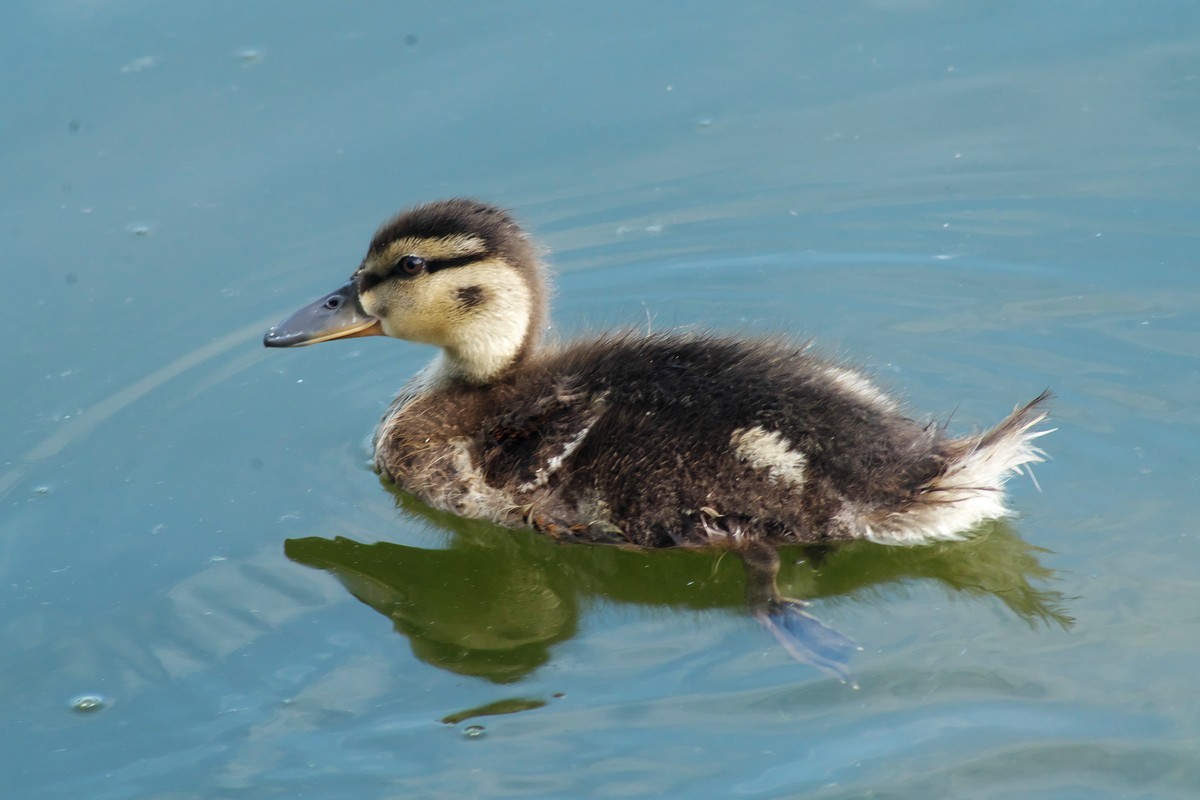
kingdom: Animalia
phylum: Chordata
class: Aves
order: Anseriformes
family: Anatidae
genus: Anas
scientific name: Anas platyrhynchos
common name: Mallard
